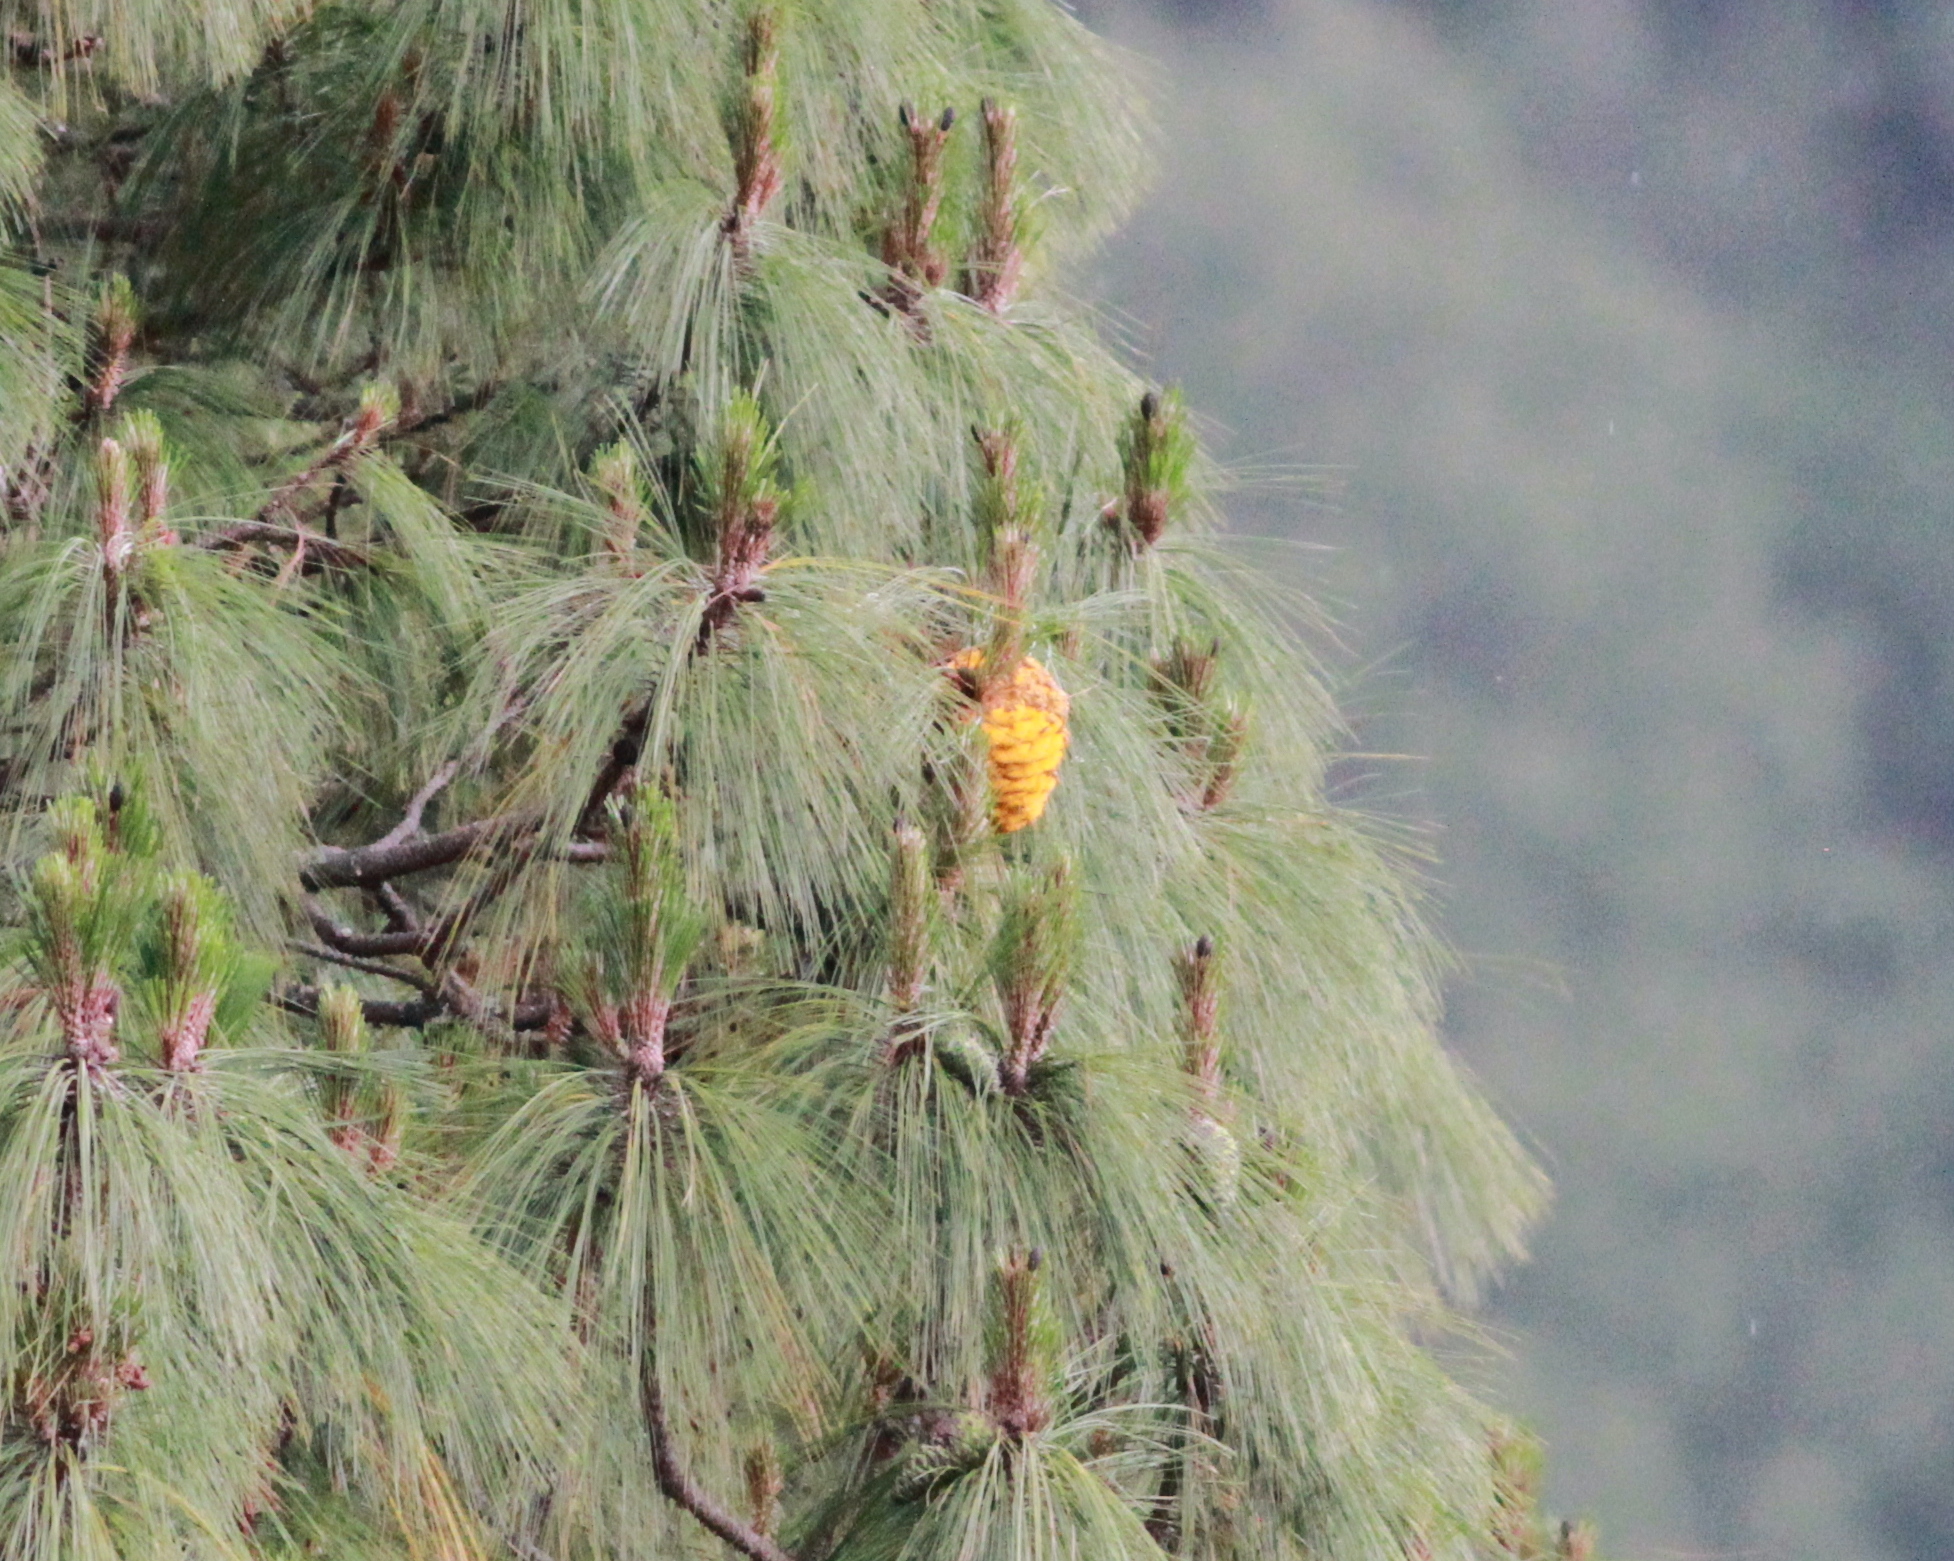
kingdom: Fungi
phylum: Basidiomycota
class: Pucciniomycetes
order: Pucciniales
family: Cronartiaceae
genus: Cronartium
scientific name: Cronartium conigenum
